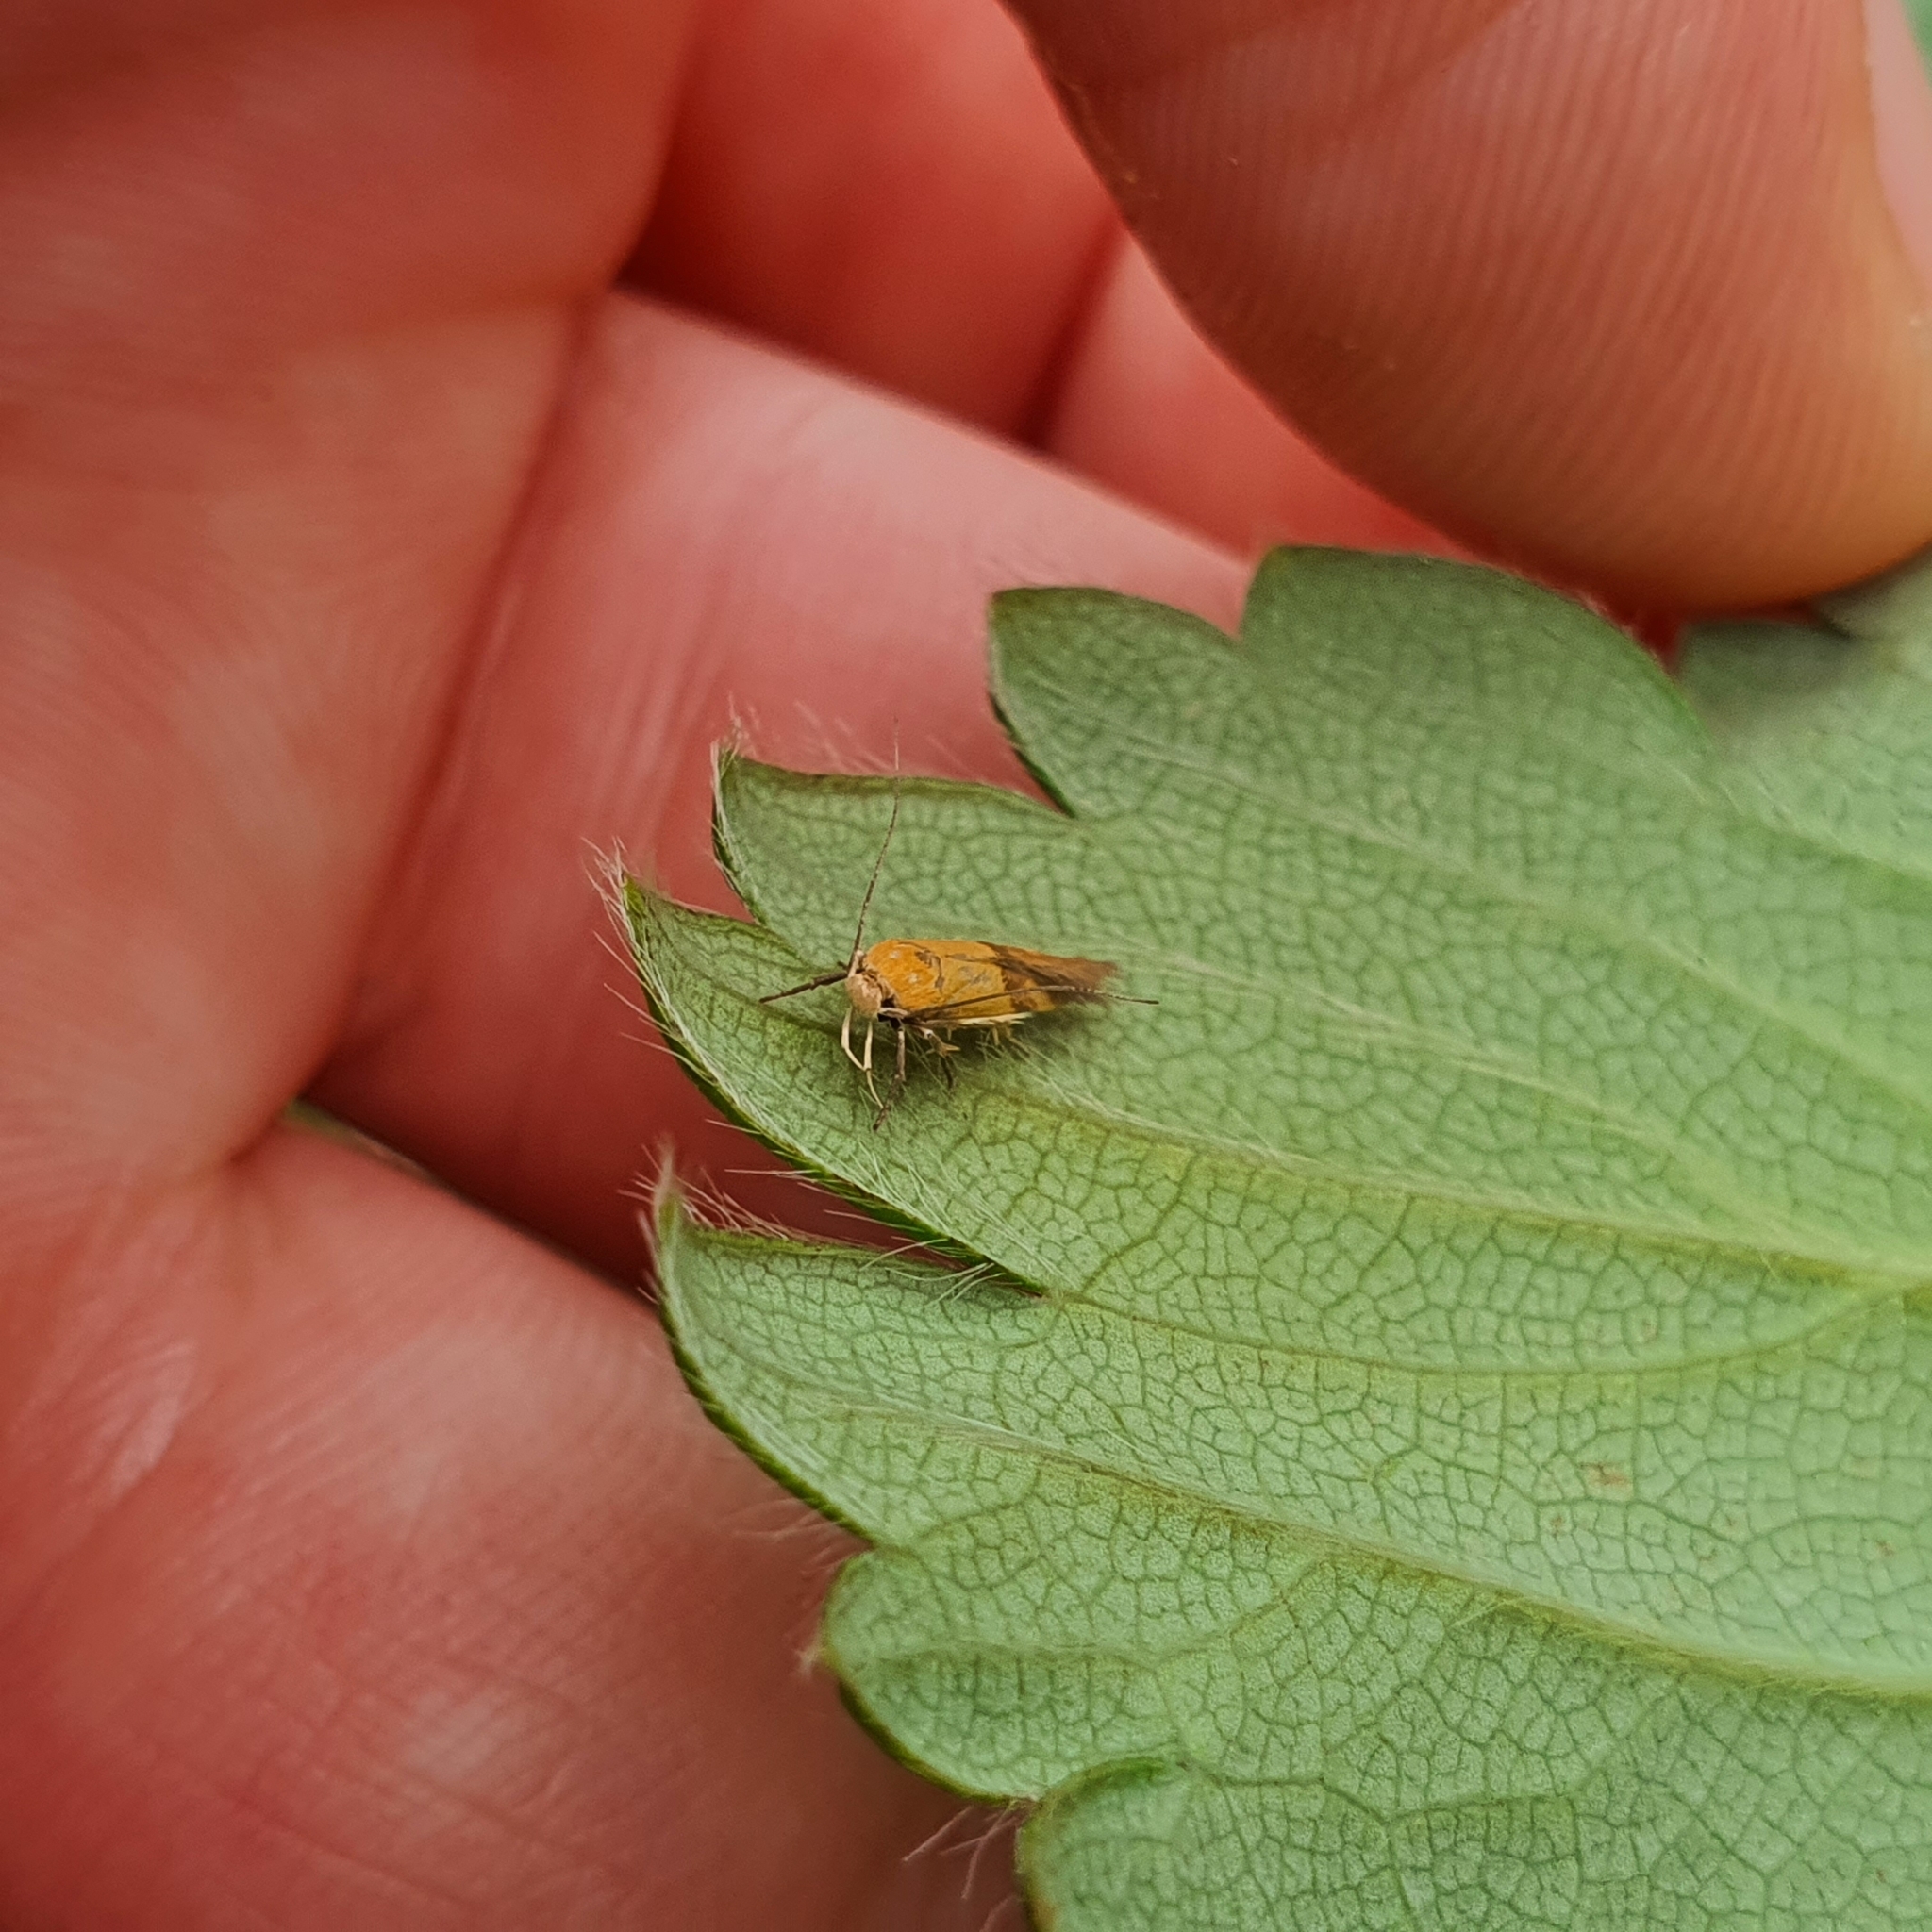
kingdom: Animalia
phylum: Arthropoda
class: Insecta
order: Lepidoptera
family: Stathmopodidae
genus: Stathmopoda
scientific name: Stathmopoda auriferella
